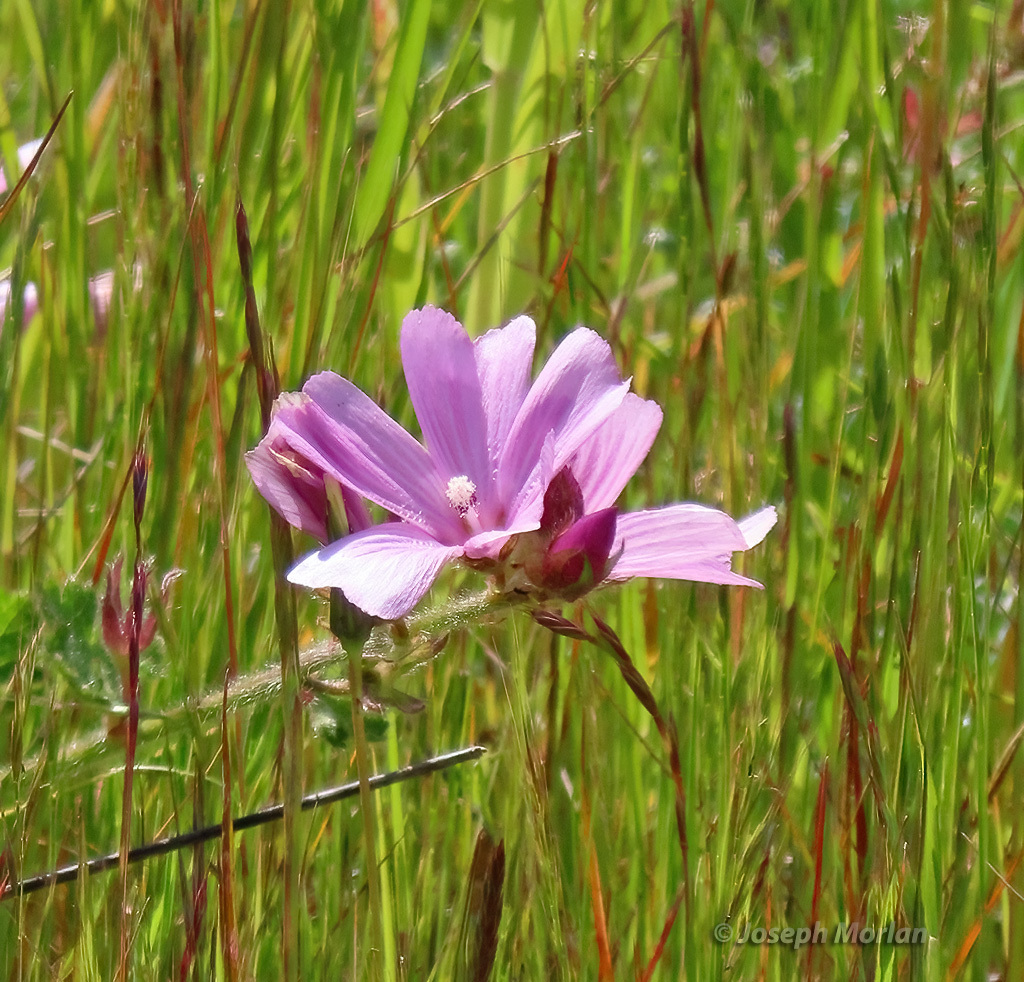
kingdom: Plantae
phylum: Tracheophyta
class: Magnoliopsida
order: Malvales
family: Malvaceae
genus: Sidalcea
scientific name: Sidalcea malviflora
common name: Greek mallow
